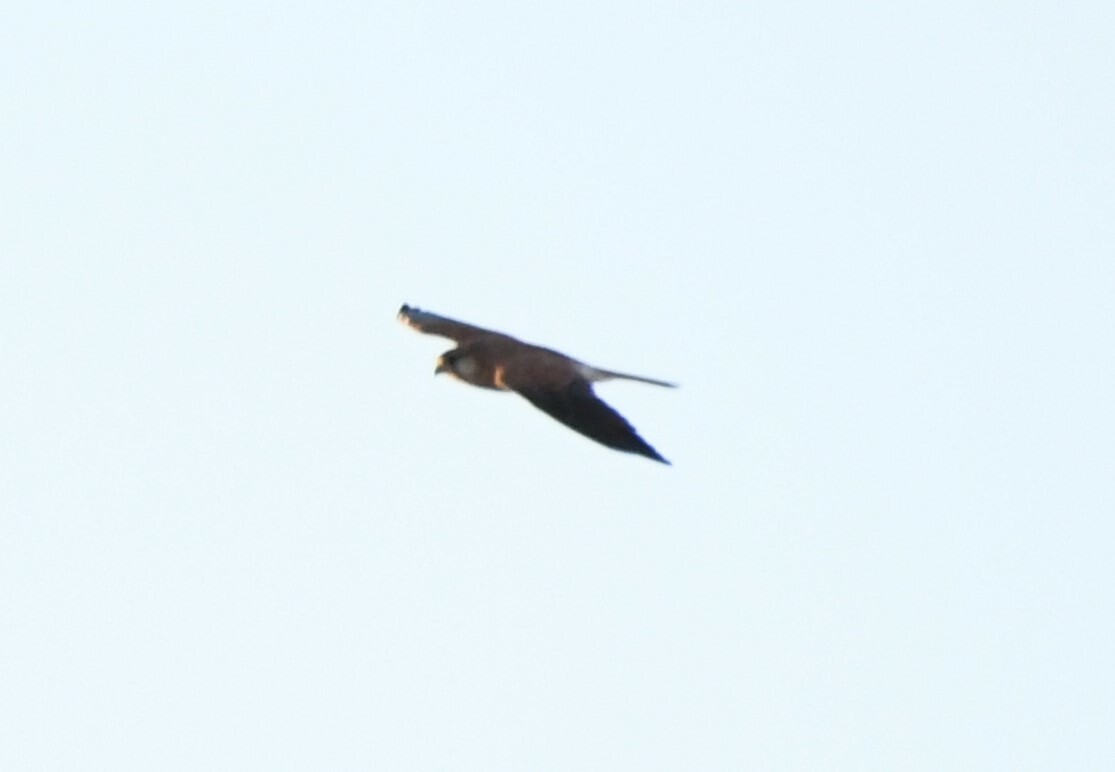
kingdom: Animalia
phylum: Chordata
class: Aves
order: Falconiformes
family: Falconidae
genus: Falco
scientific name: Falco cenchroides
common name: Nankeen kestrel
